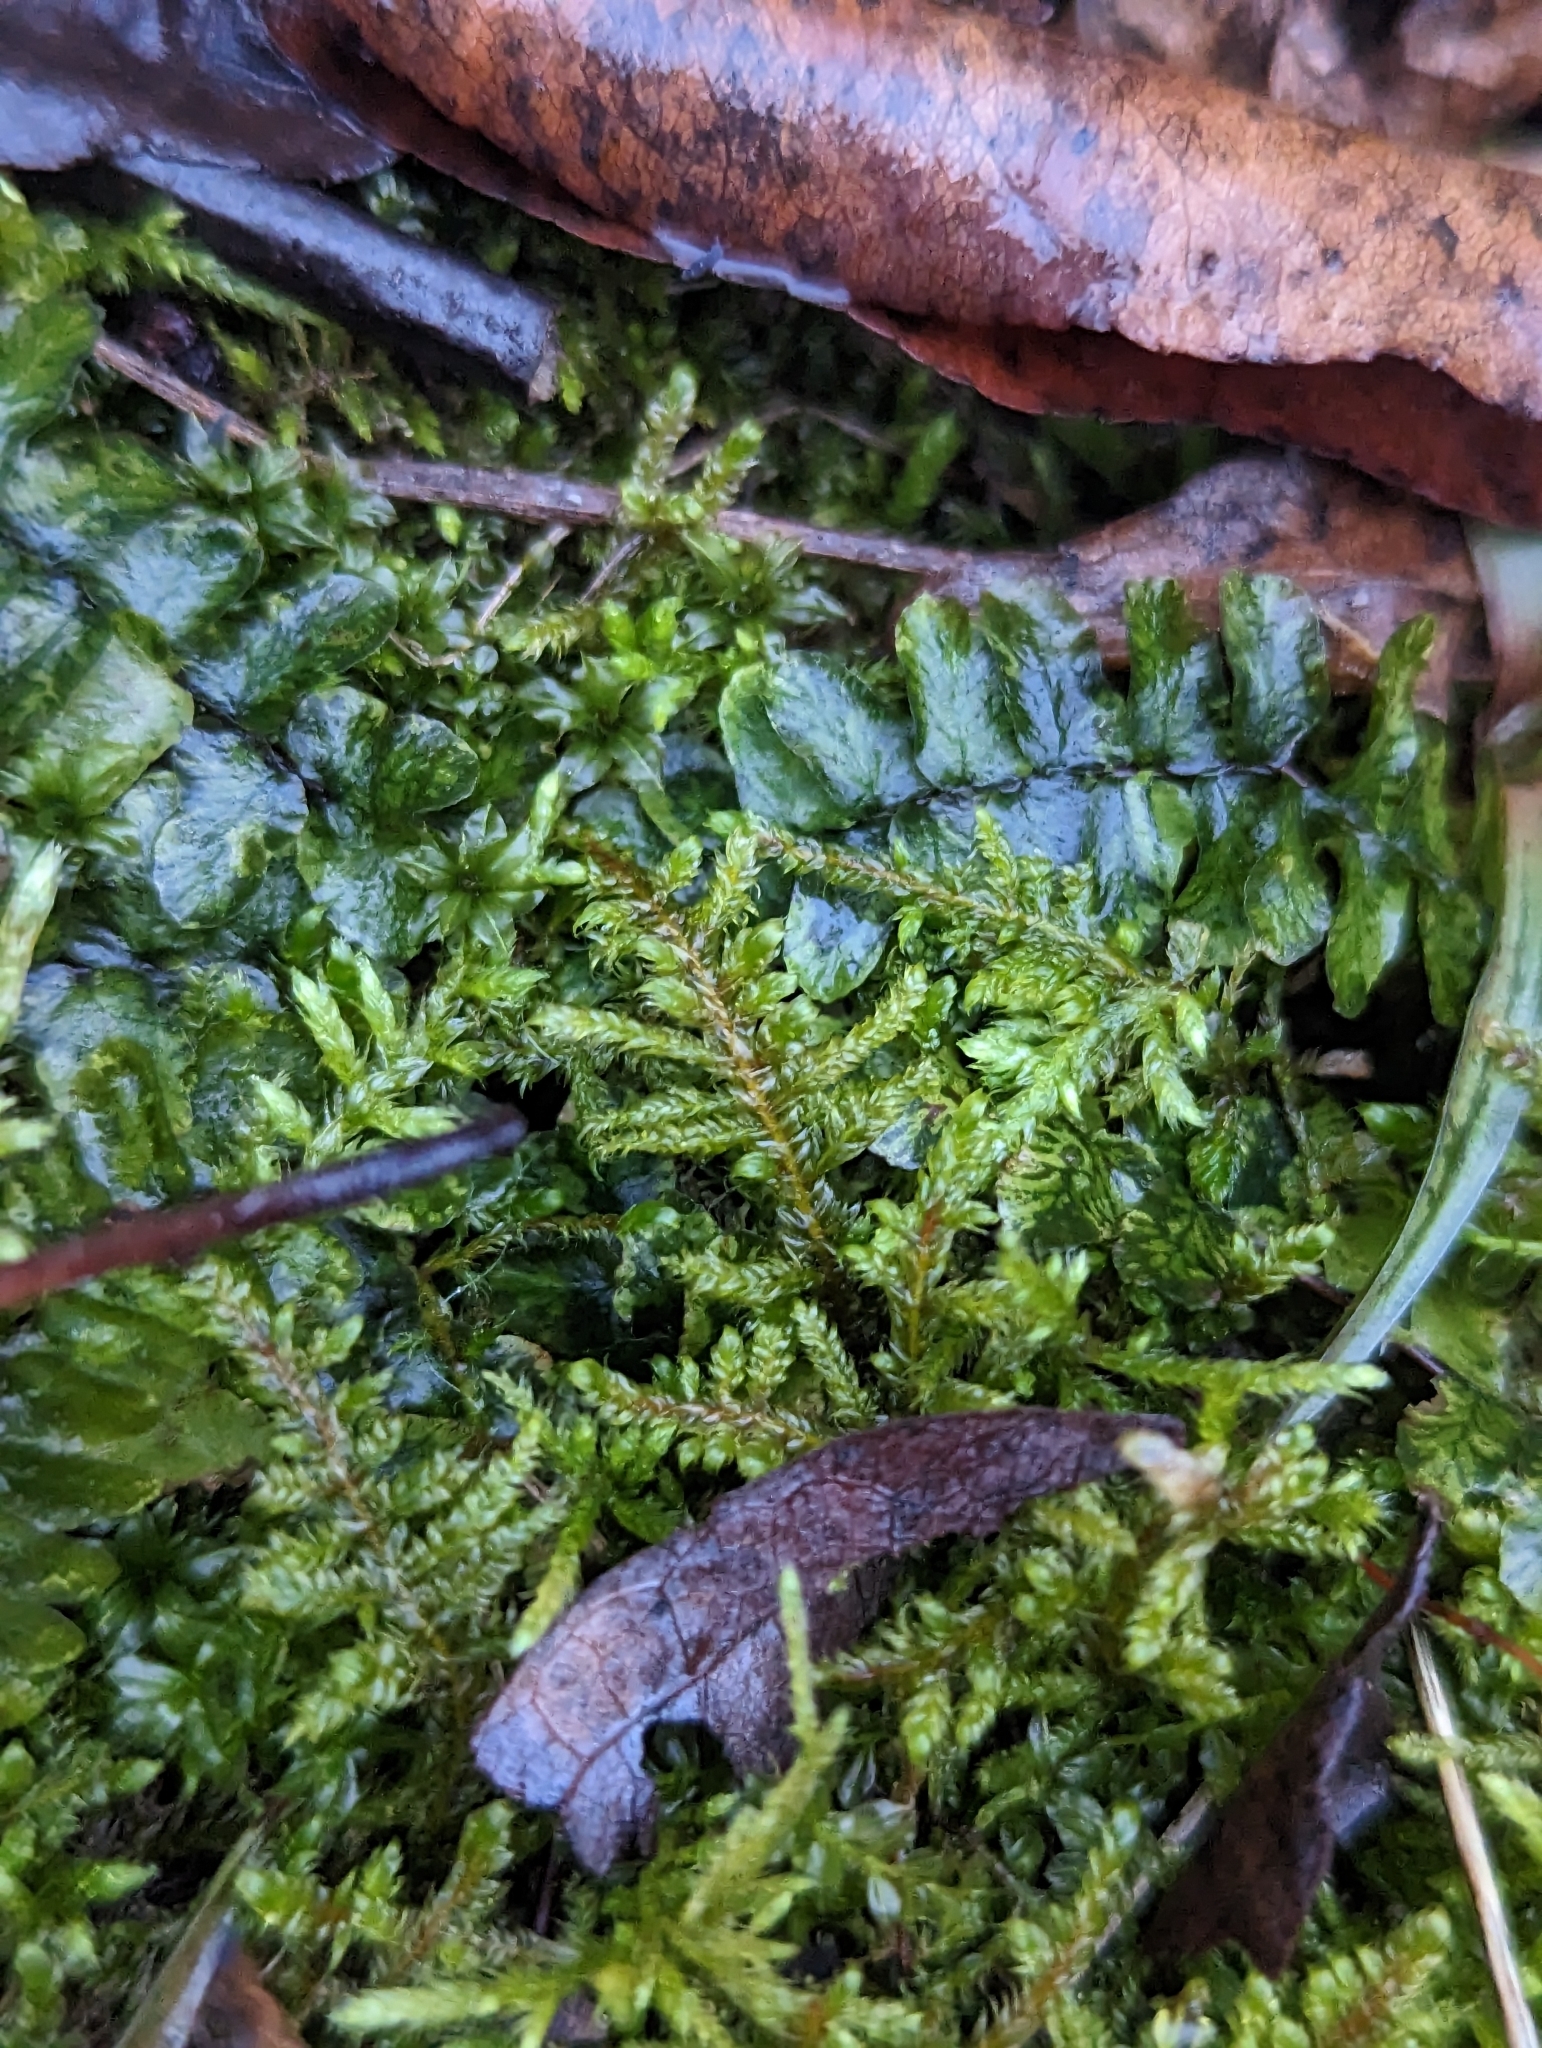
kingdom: Plantae
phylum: Bryophyta
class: Bryopsida
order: Hypnales
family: Callicladiaceae
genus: Callicladium
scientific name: Callicladium imponens
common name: Brocade moss
